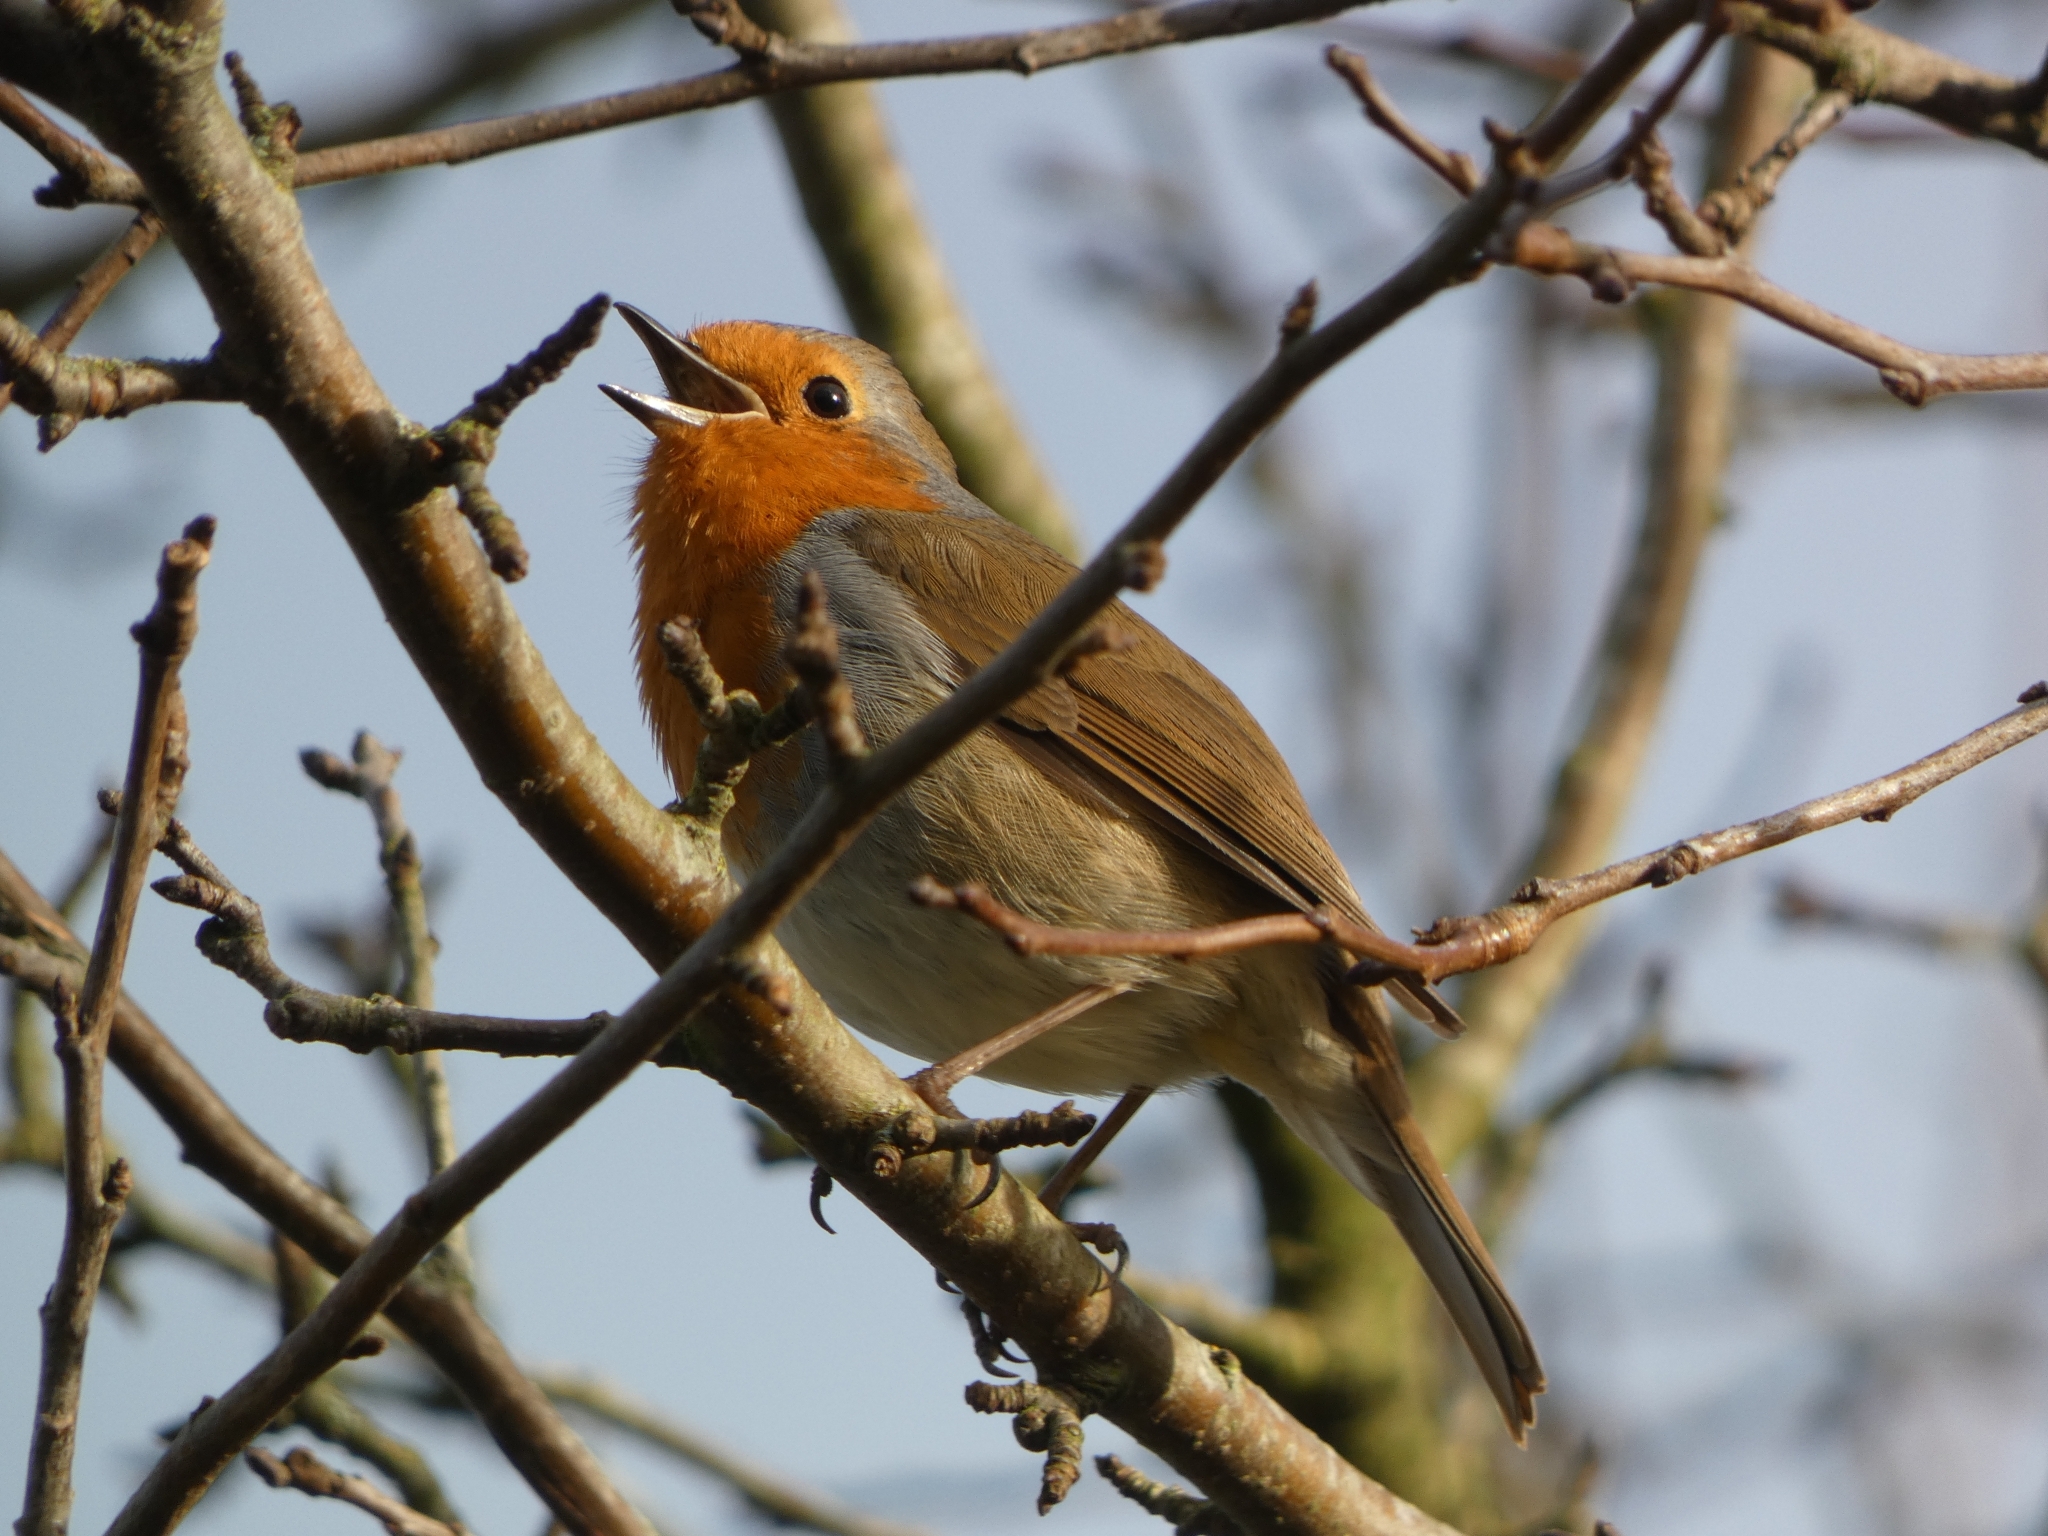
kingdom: Animalia
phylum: Chordata
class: Aves
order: Passeriformes
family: Muscicapidae
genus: Erithacus
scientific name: Erithacus rubecula
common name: European robin
